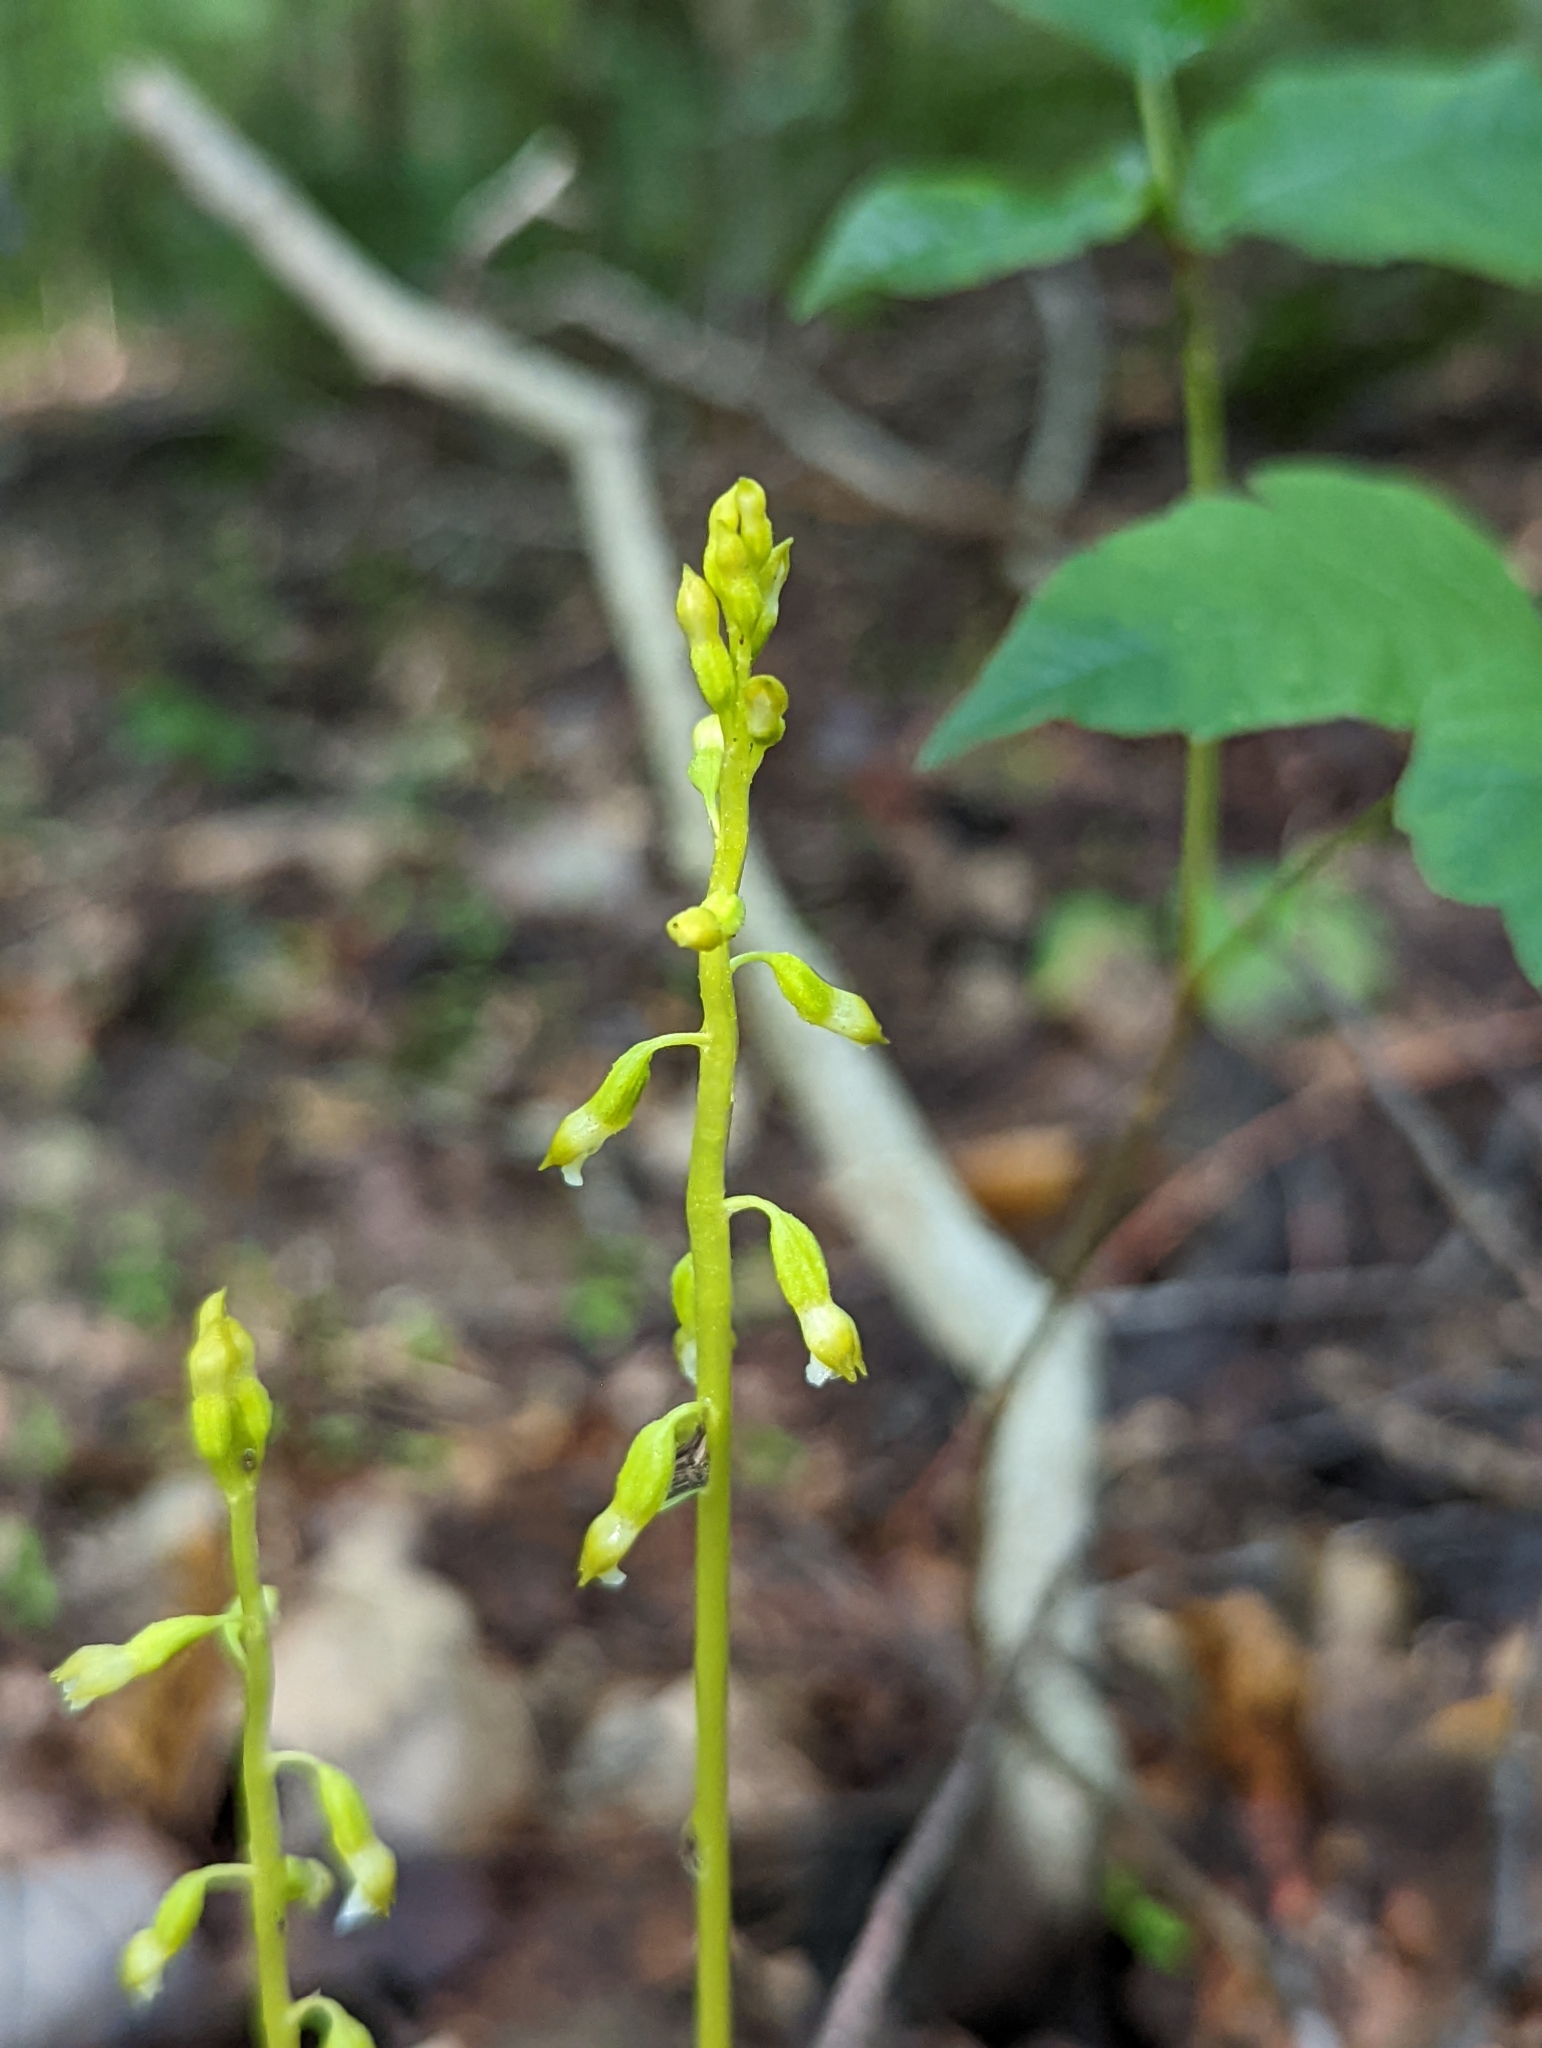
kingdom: Plantae
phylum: Tracheophyta
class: Liliopsida
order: Asparagales
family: Orchidaceae
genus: Corallorhiza
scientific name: Corallorhiza odontorhiza
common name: Autumn coralroot
